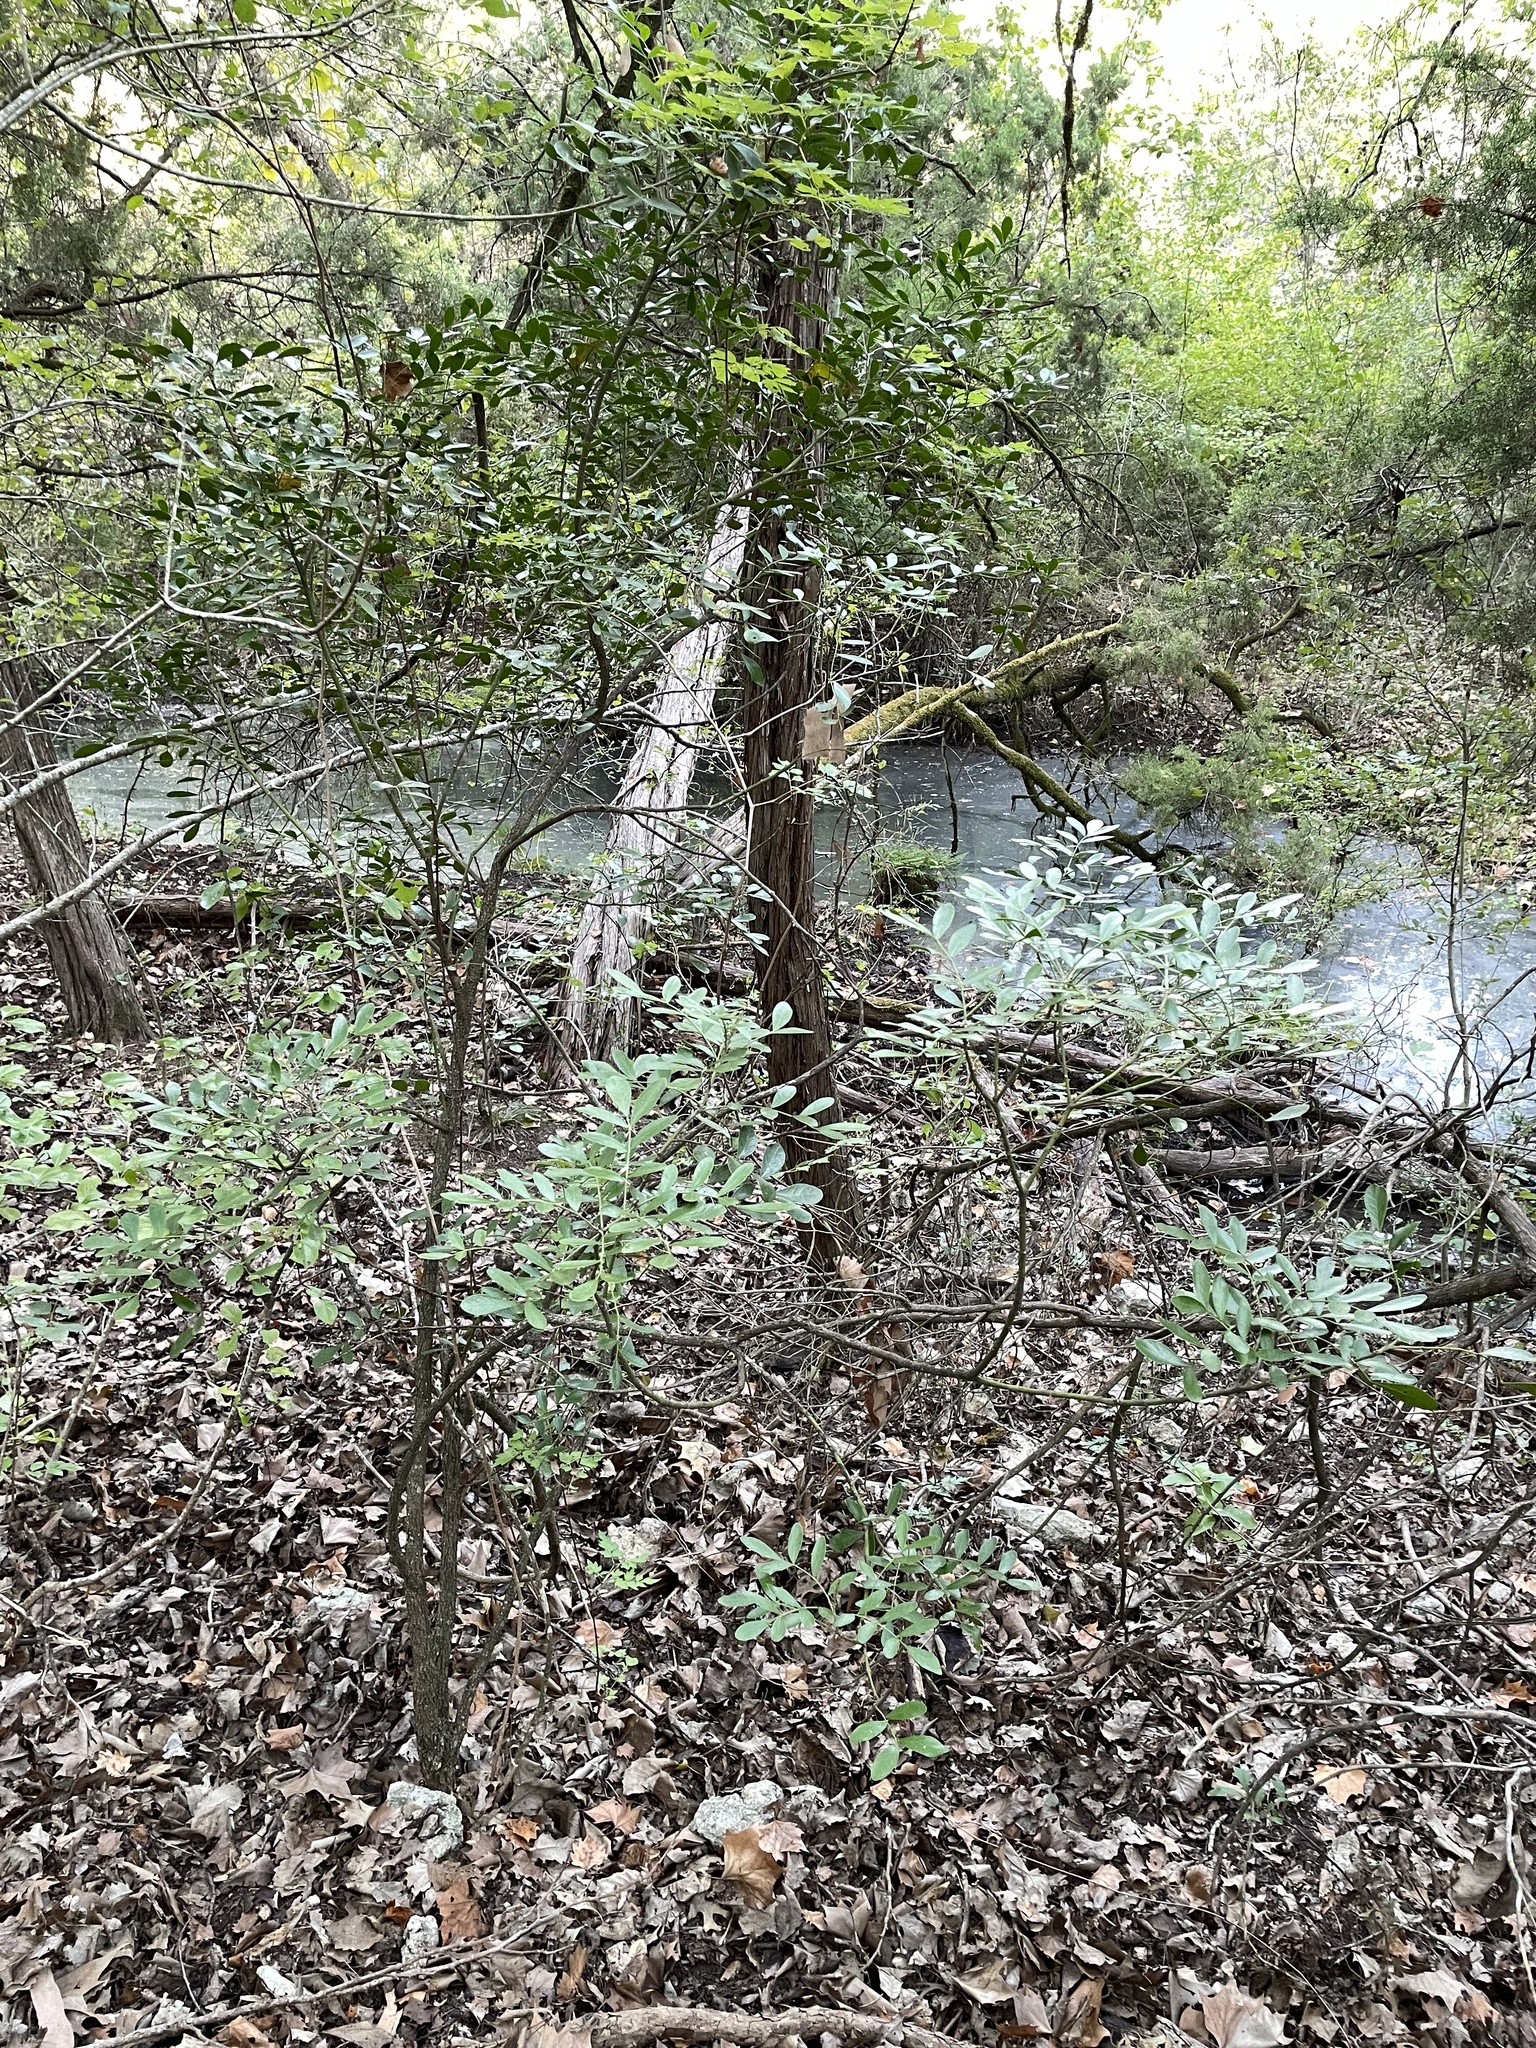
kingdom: Plantae
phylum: Tracheophyta
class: Magnoliopsida
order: Fabales
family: Fabaceae
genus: Dermatophyllum
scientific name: Dermatophyllum secundiflorum
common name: Texas-mountain-laurel
